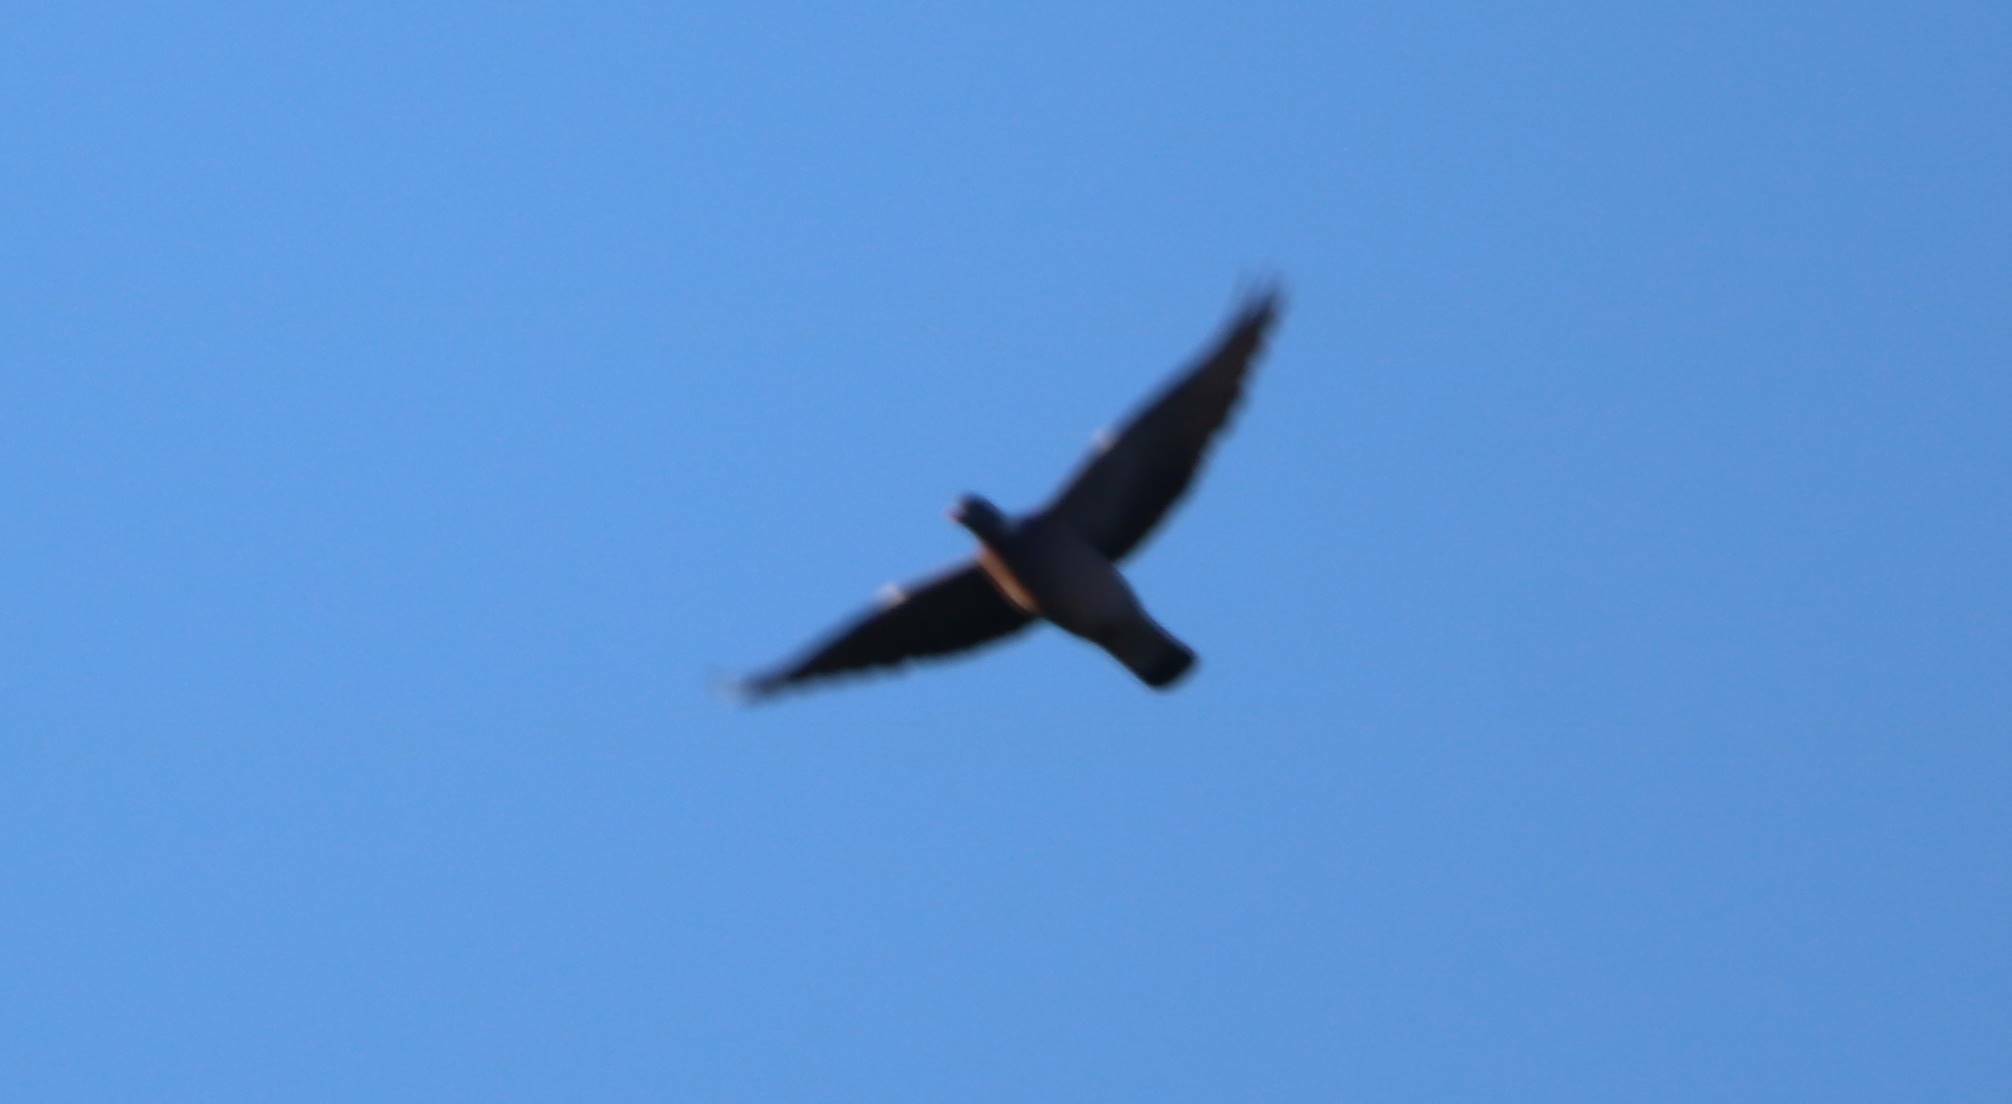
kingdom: Animalia
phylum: Chordata
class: Aves
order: Columbiformes
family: Columbidae
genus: Columba
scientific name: Columba palumbus
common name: Common wood pigeon
